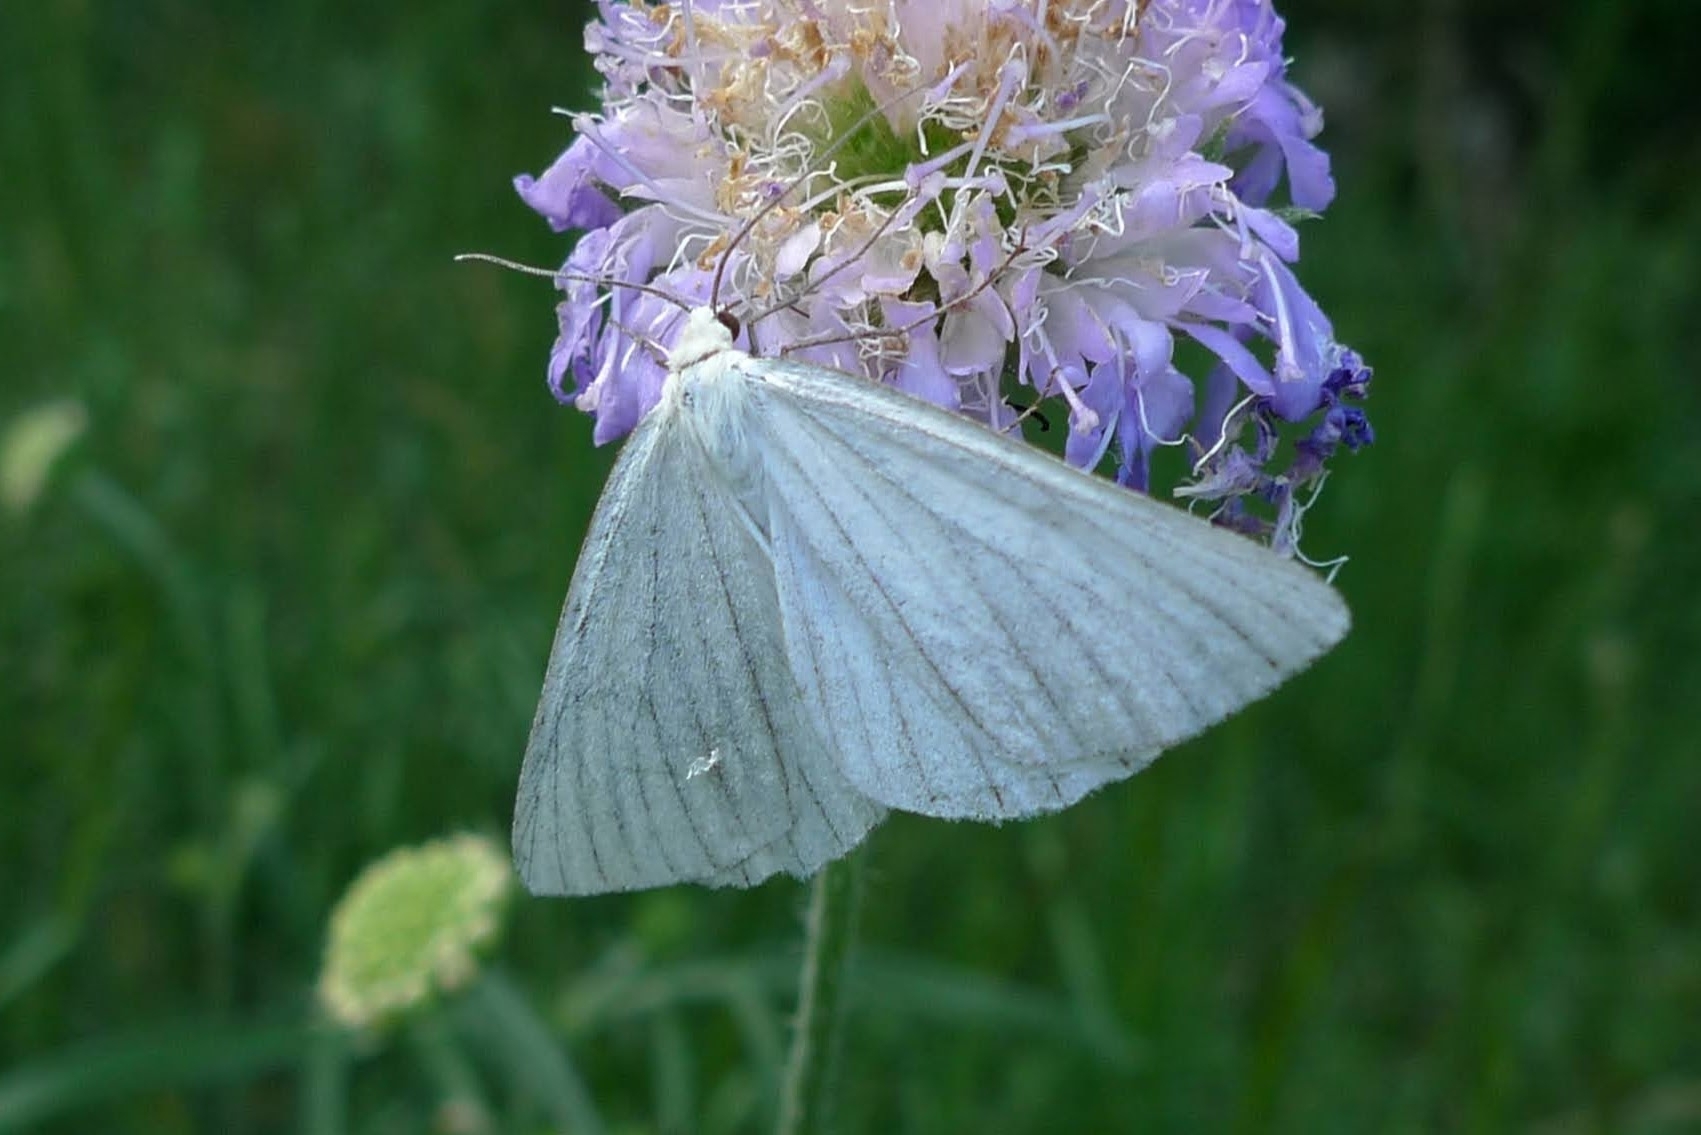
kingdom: Animalia
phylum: Arthropoda
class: Insecta
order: Lepidoptera
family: Geometridae
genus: Siona
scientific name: Siona lineata
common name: Black-veined moth
